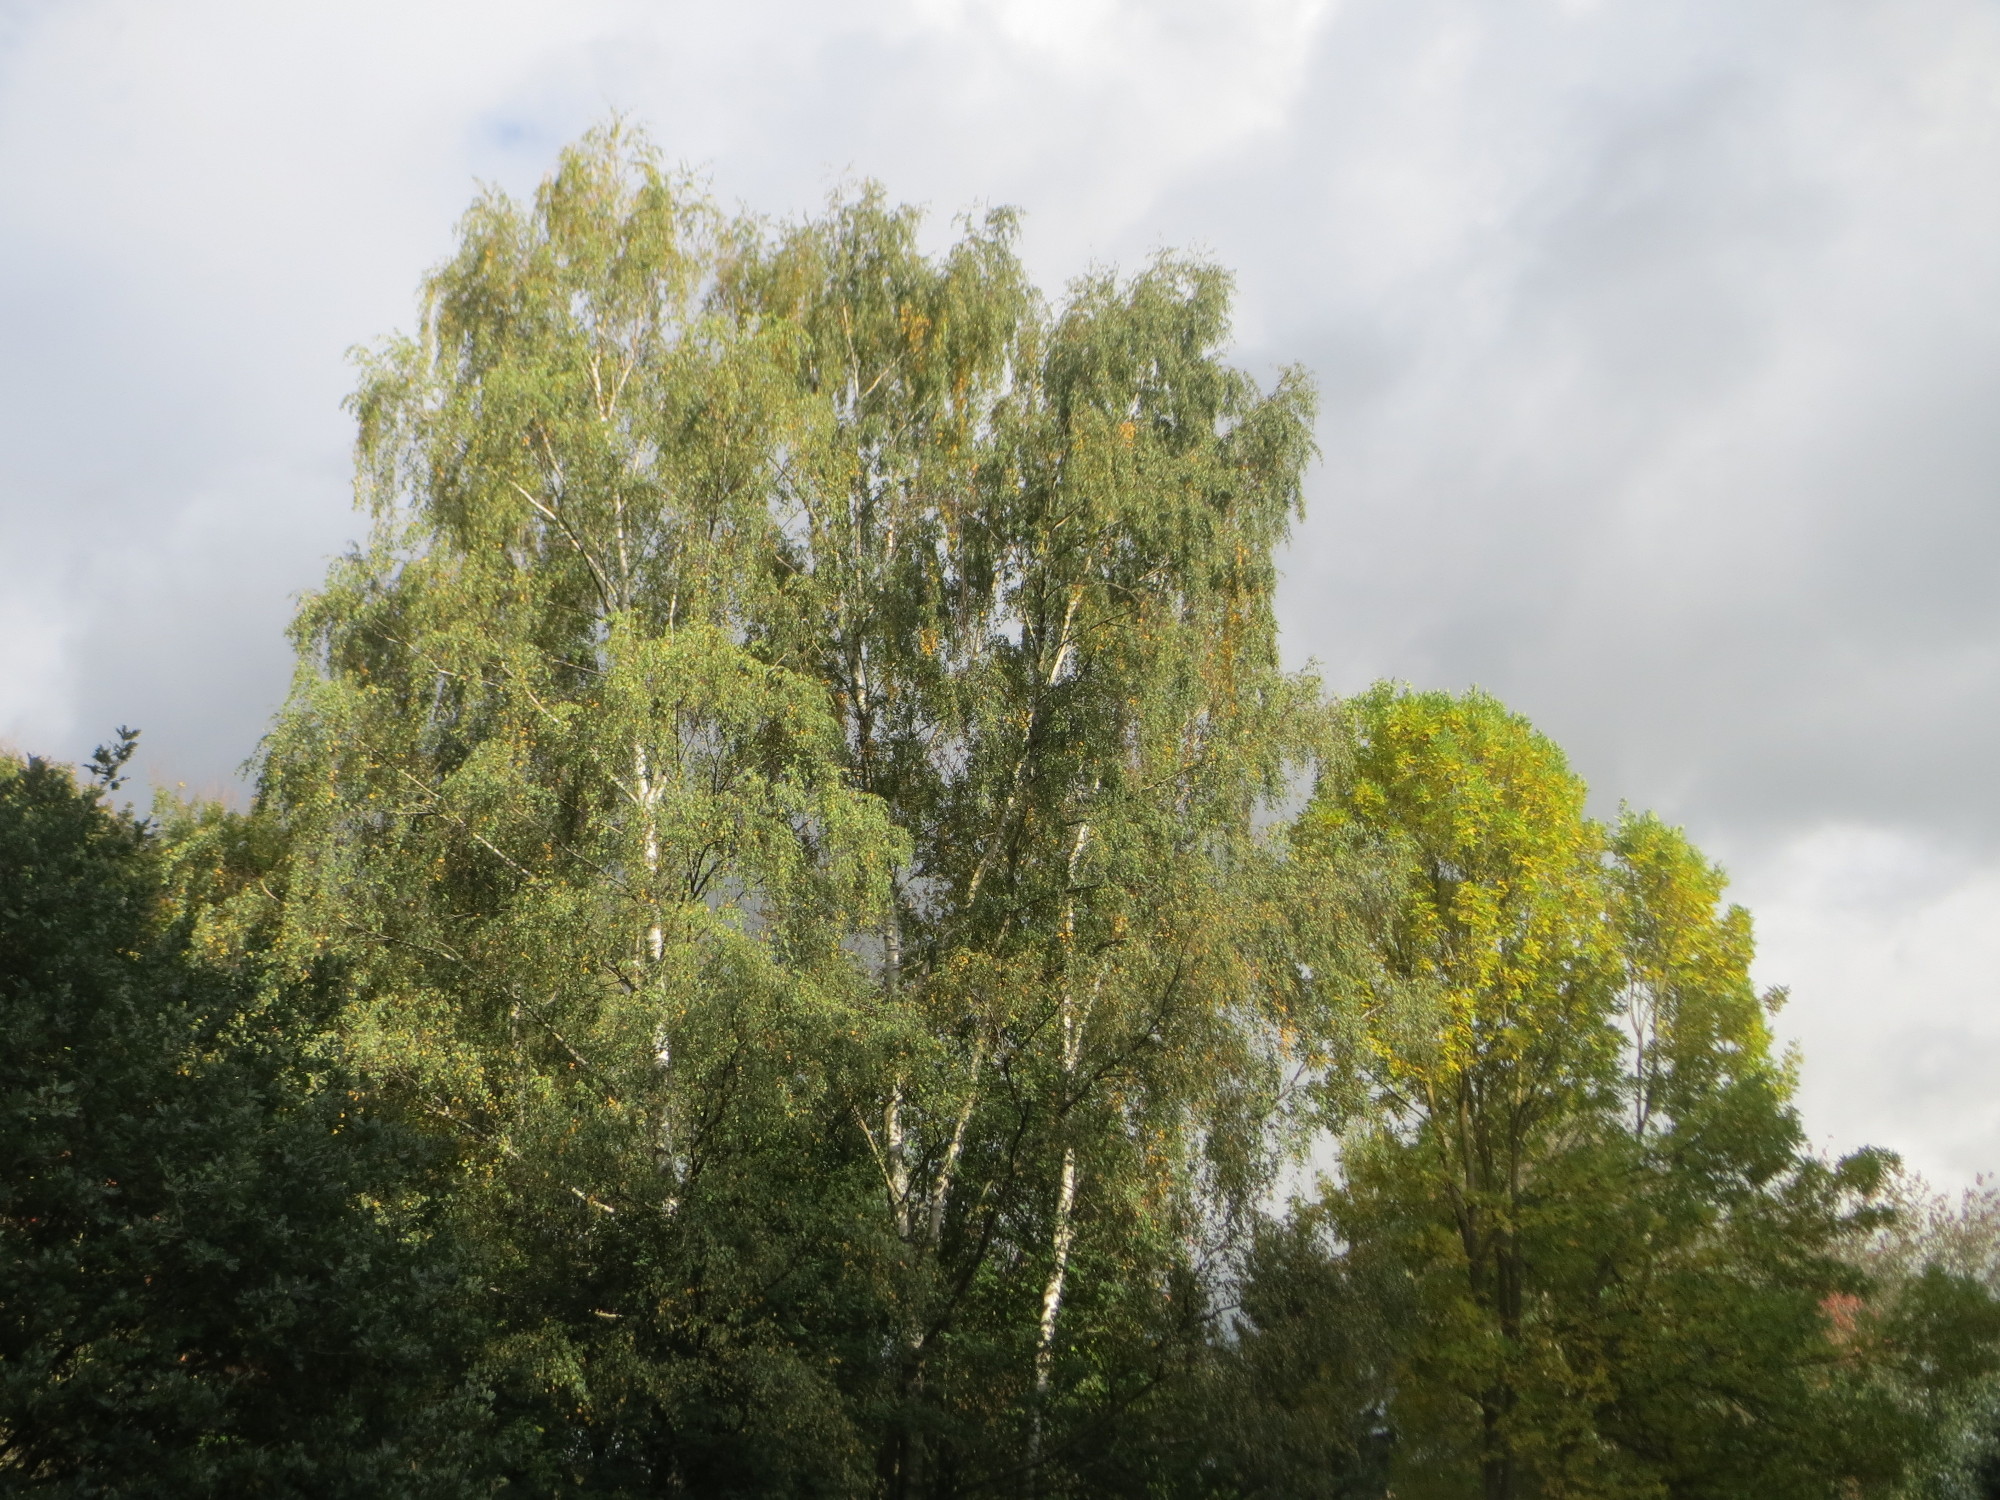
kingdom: Plantae
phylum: Tracheophyta
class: Magnoliopsida
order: Fagales
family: Betulaceae
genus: Betula
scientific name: Betula pendula
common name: Silver birch
